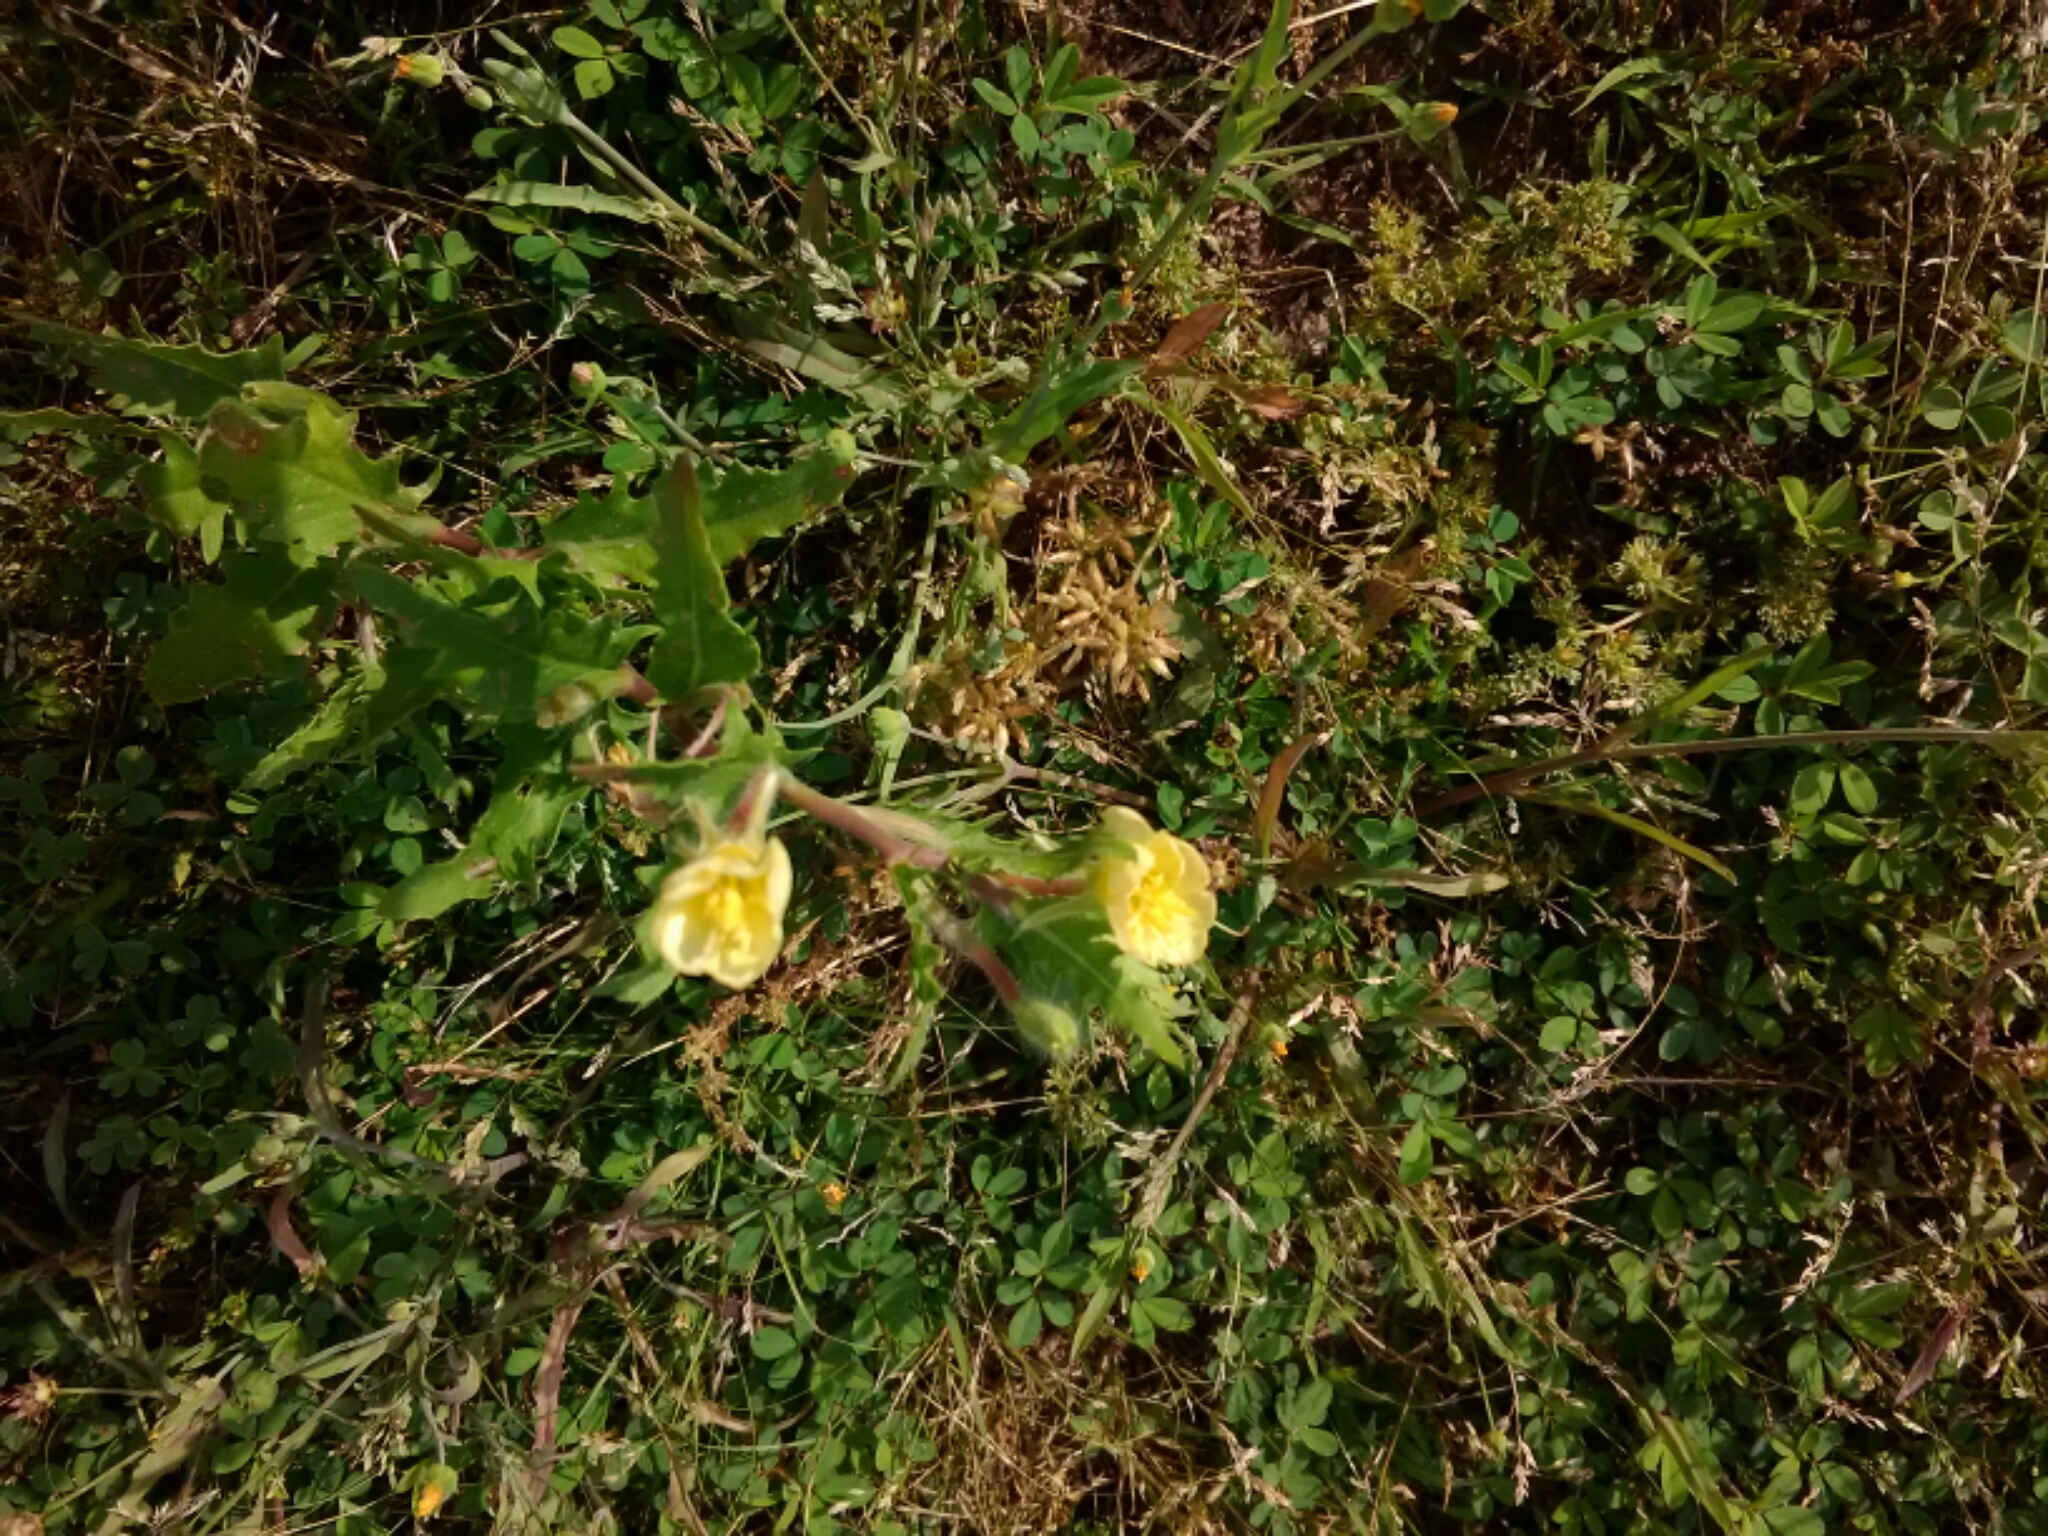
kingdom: Plantae
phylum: Tracheophyta
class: Magnoliopsida
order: Myrtales
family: Onagraceae
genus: Oenothera
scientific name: Oenothera laciniata
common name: Cut-leaved evening-primrose
